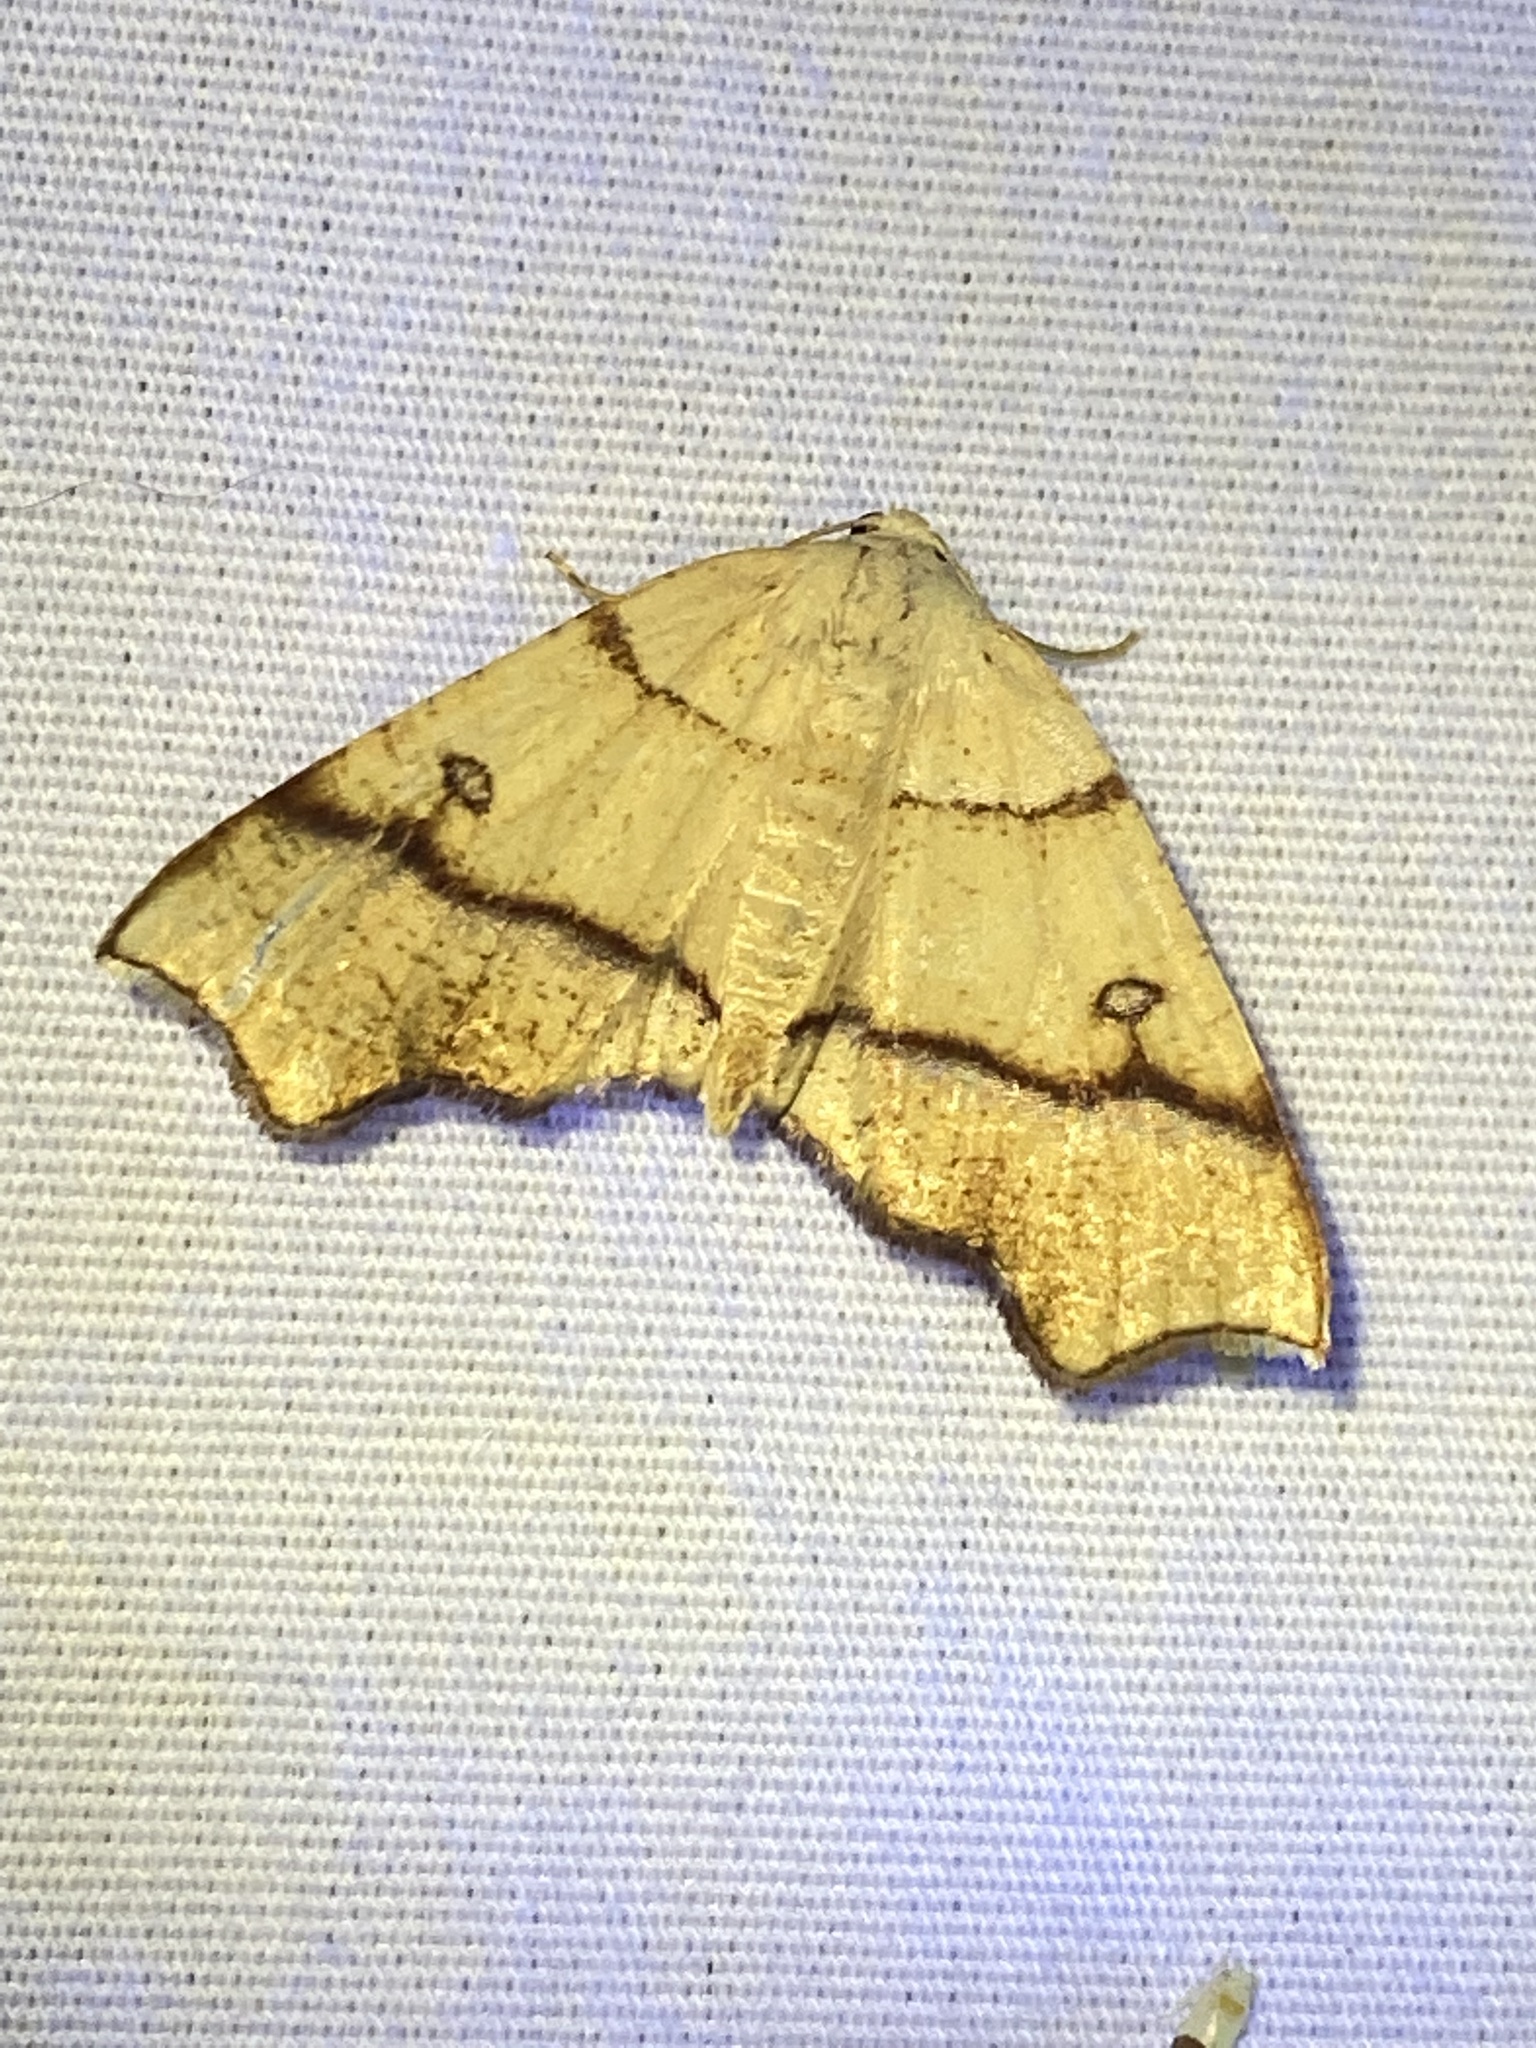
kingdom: Animalia
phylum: Arthropoda
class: Insecta
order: Lepidoptera
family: Geometridae
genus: Plagodis
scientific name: Plagodis alcoolaria
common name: Hollow-spotted plagodis
